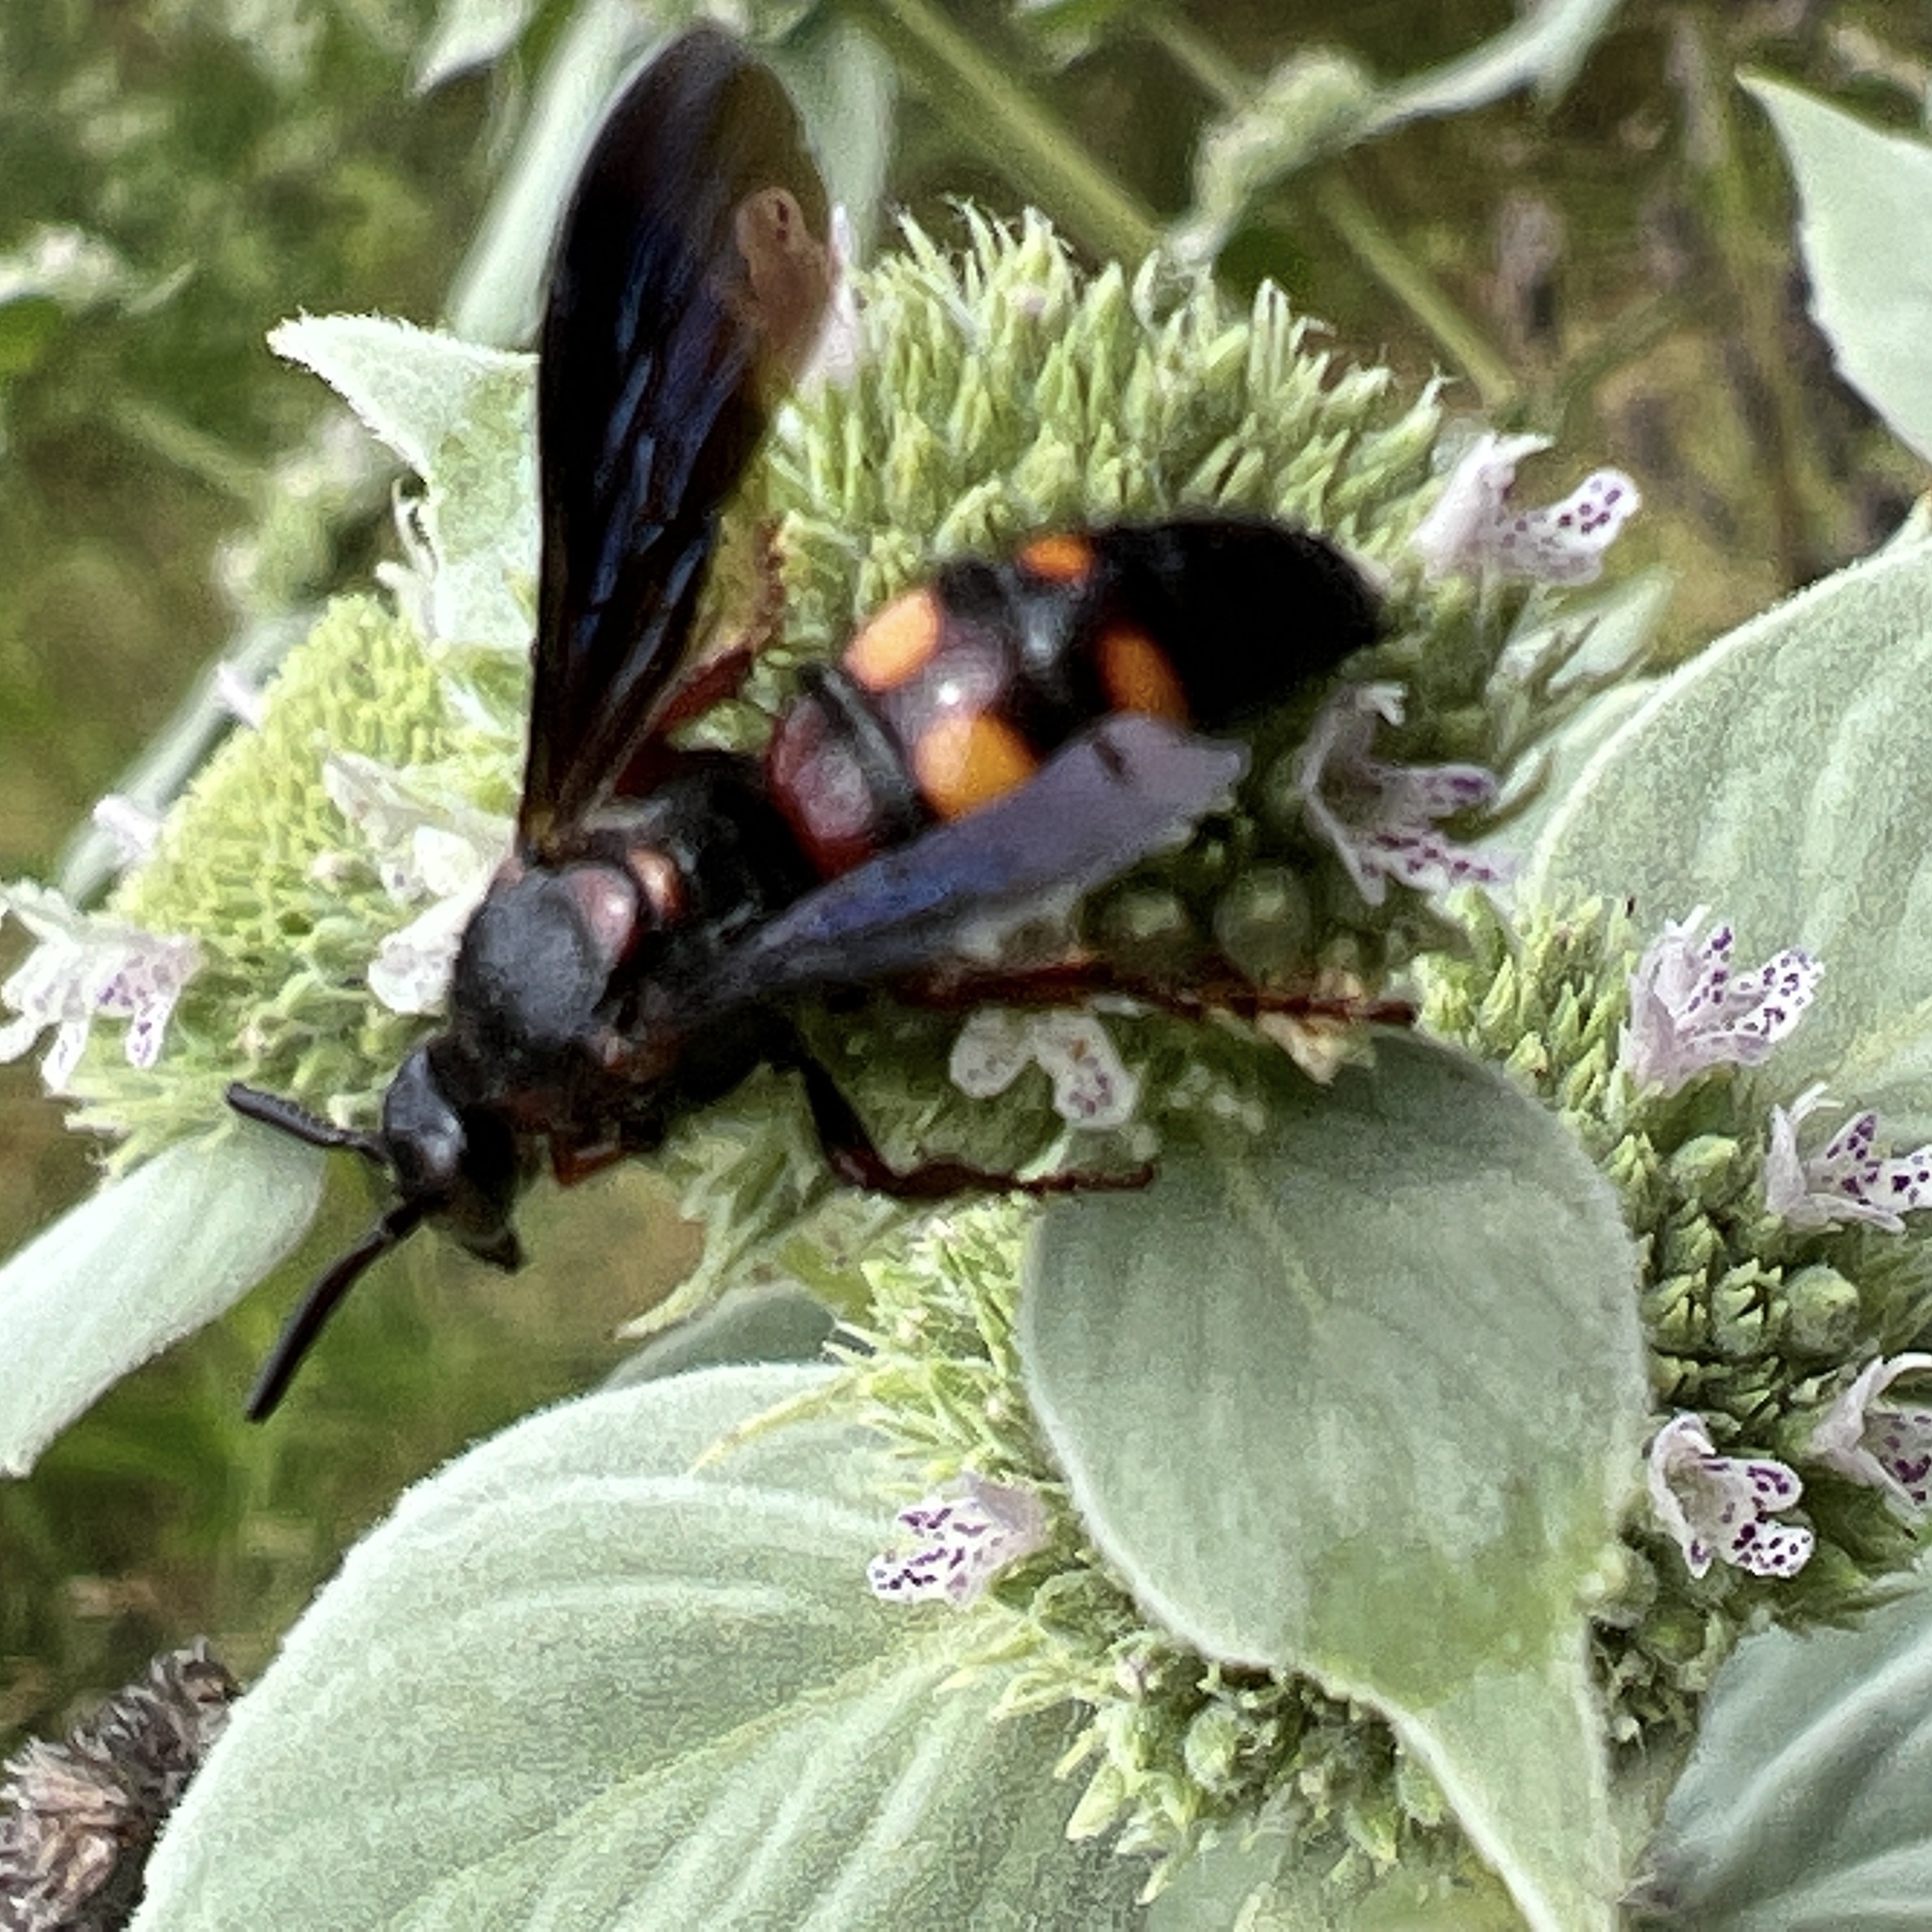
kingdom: Animalia
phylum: Arthropoda
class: Insecta
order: Hymenoptera
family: Scoliidae
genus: Scolia
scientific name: Scolia nobilitata
